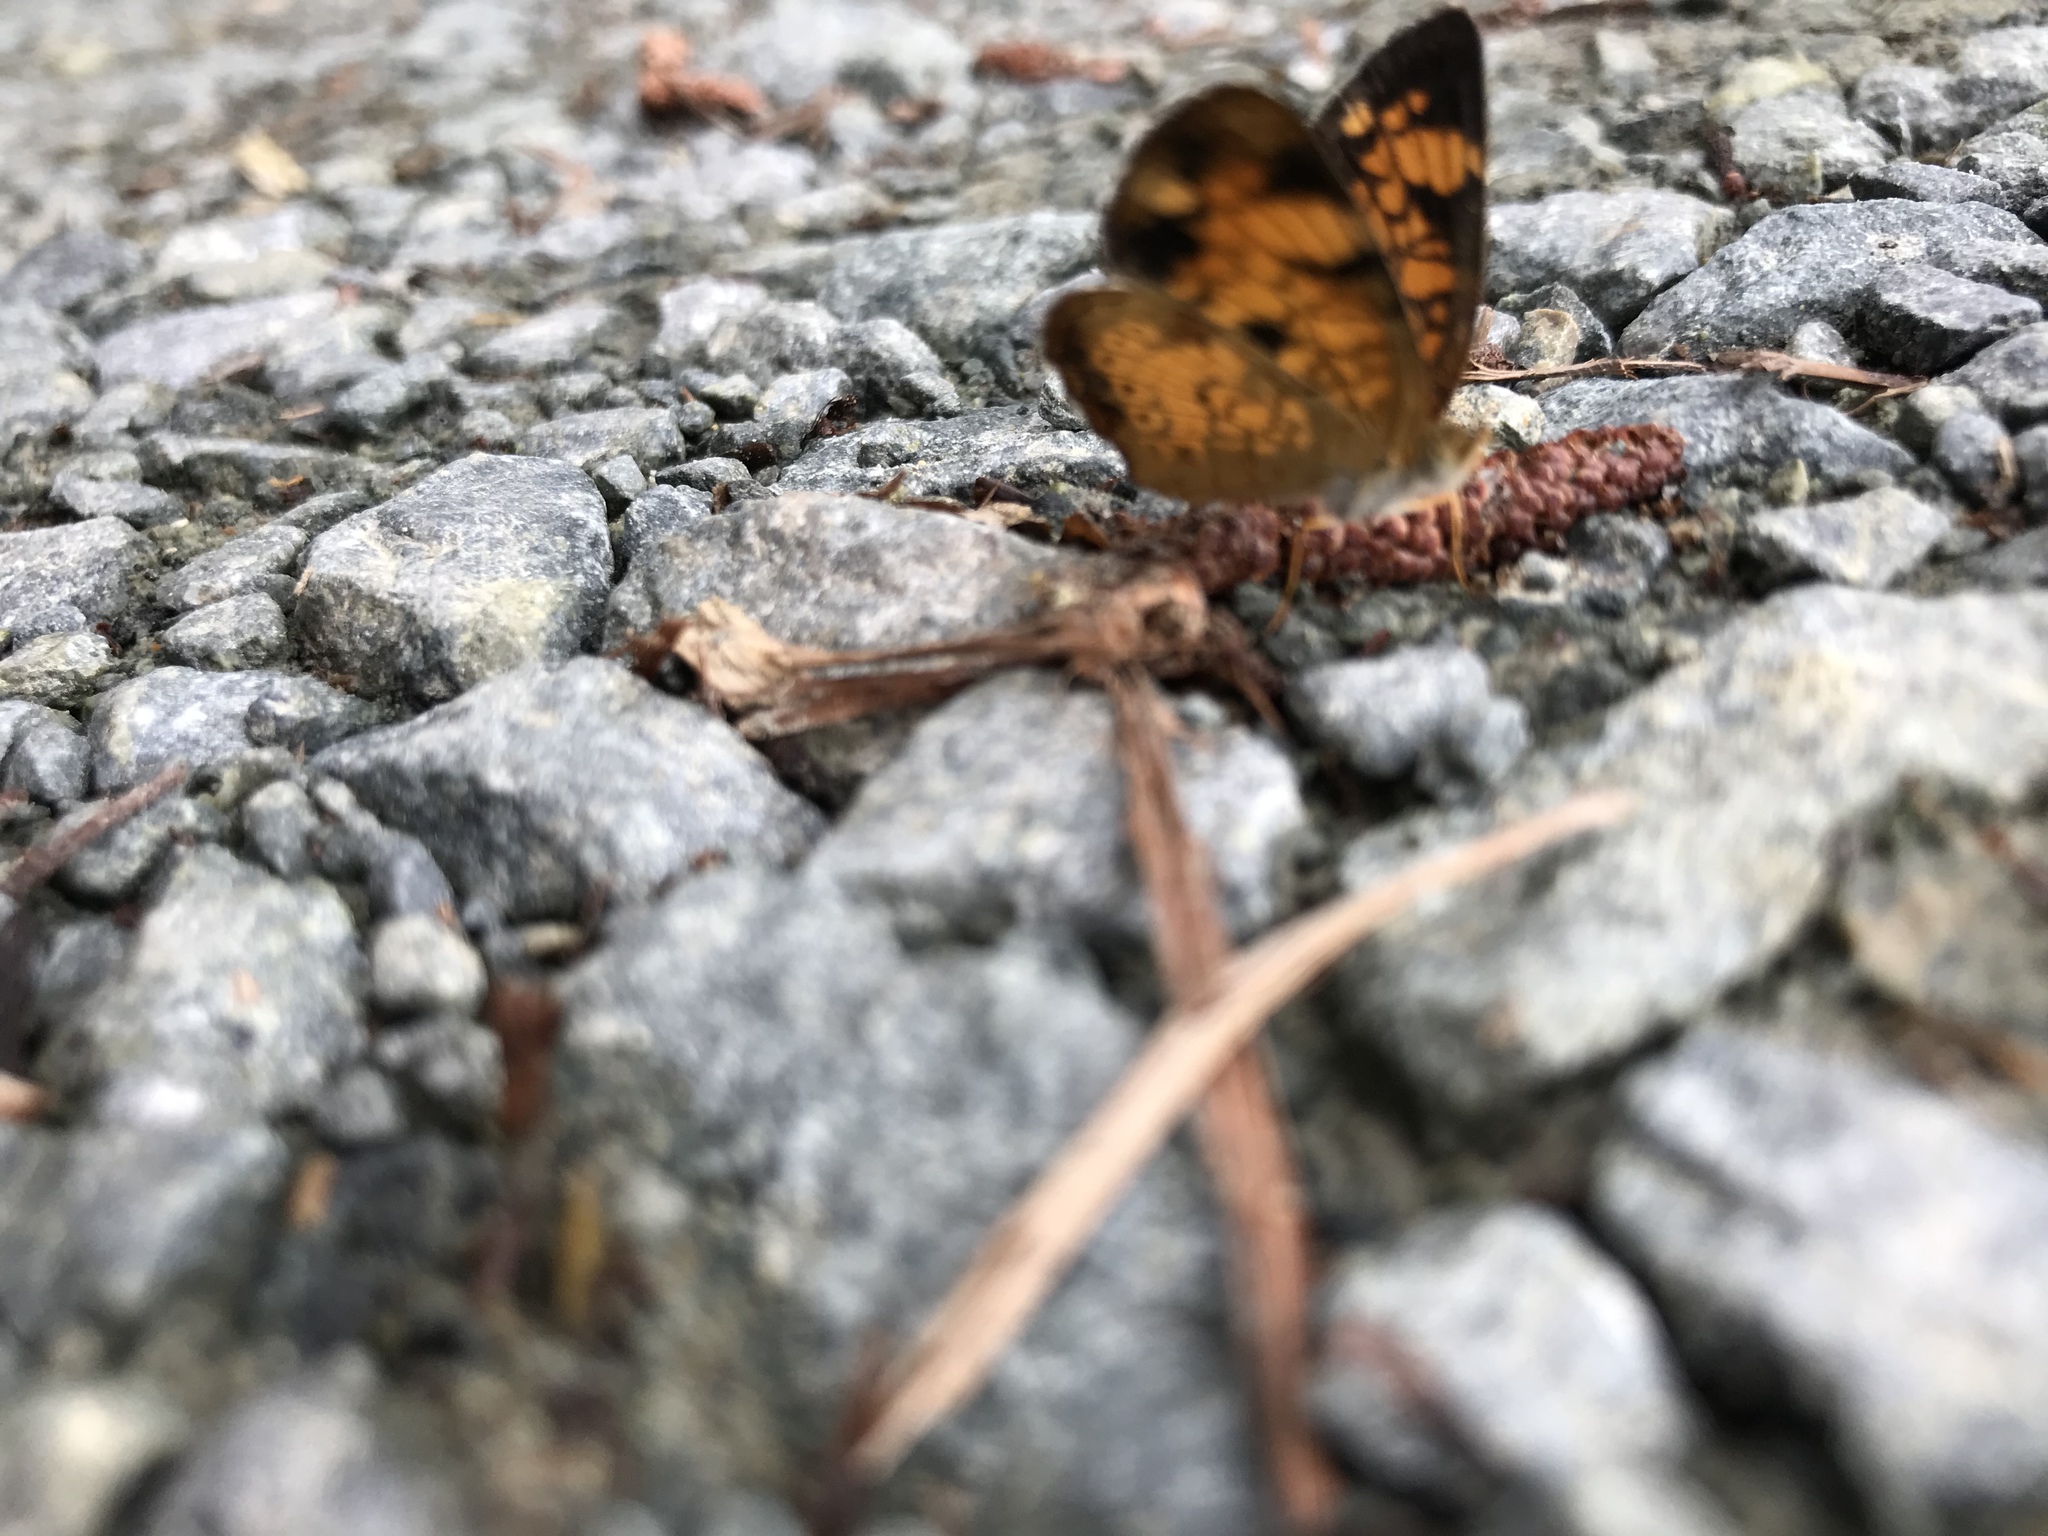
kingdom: Animalia
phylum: Arthropoda
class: Insecta
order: Lepidoptera
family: Nymphalidae
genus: Phyciodes
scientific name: Phyciodes tharos
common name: Pearl crescent
